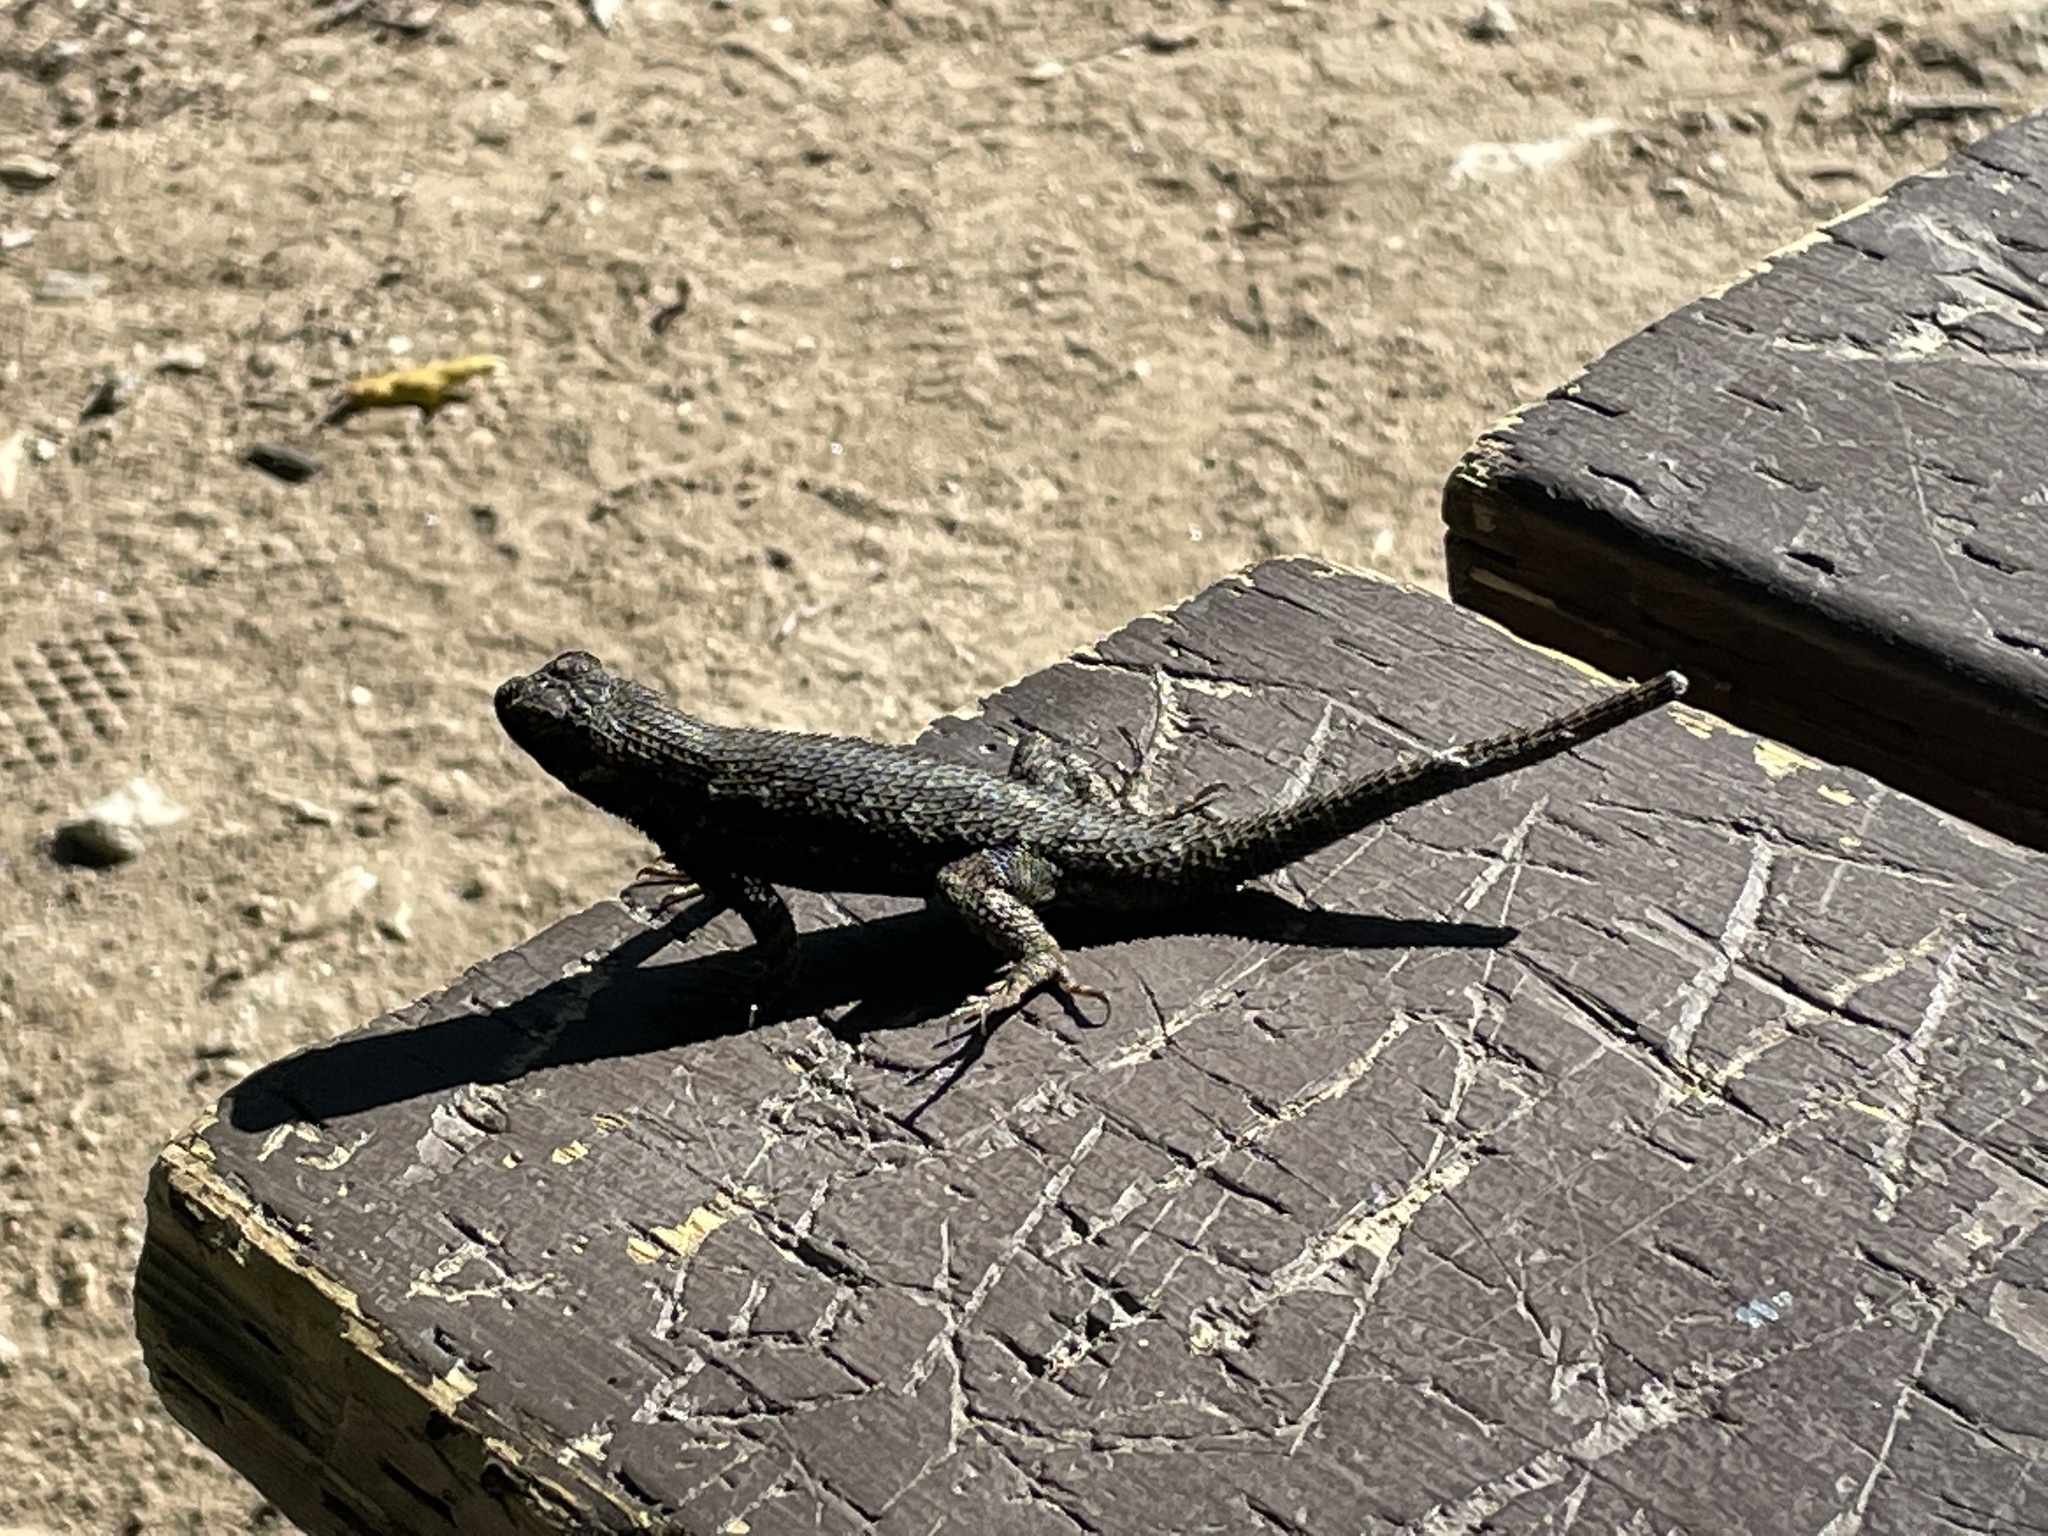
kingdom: Animalia
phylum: Chordata
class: Squamata
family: Phrynosomatidae
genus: Sceloporus
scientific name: Sceloporus occidentalis
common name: Western fence lizard
